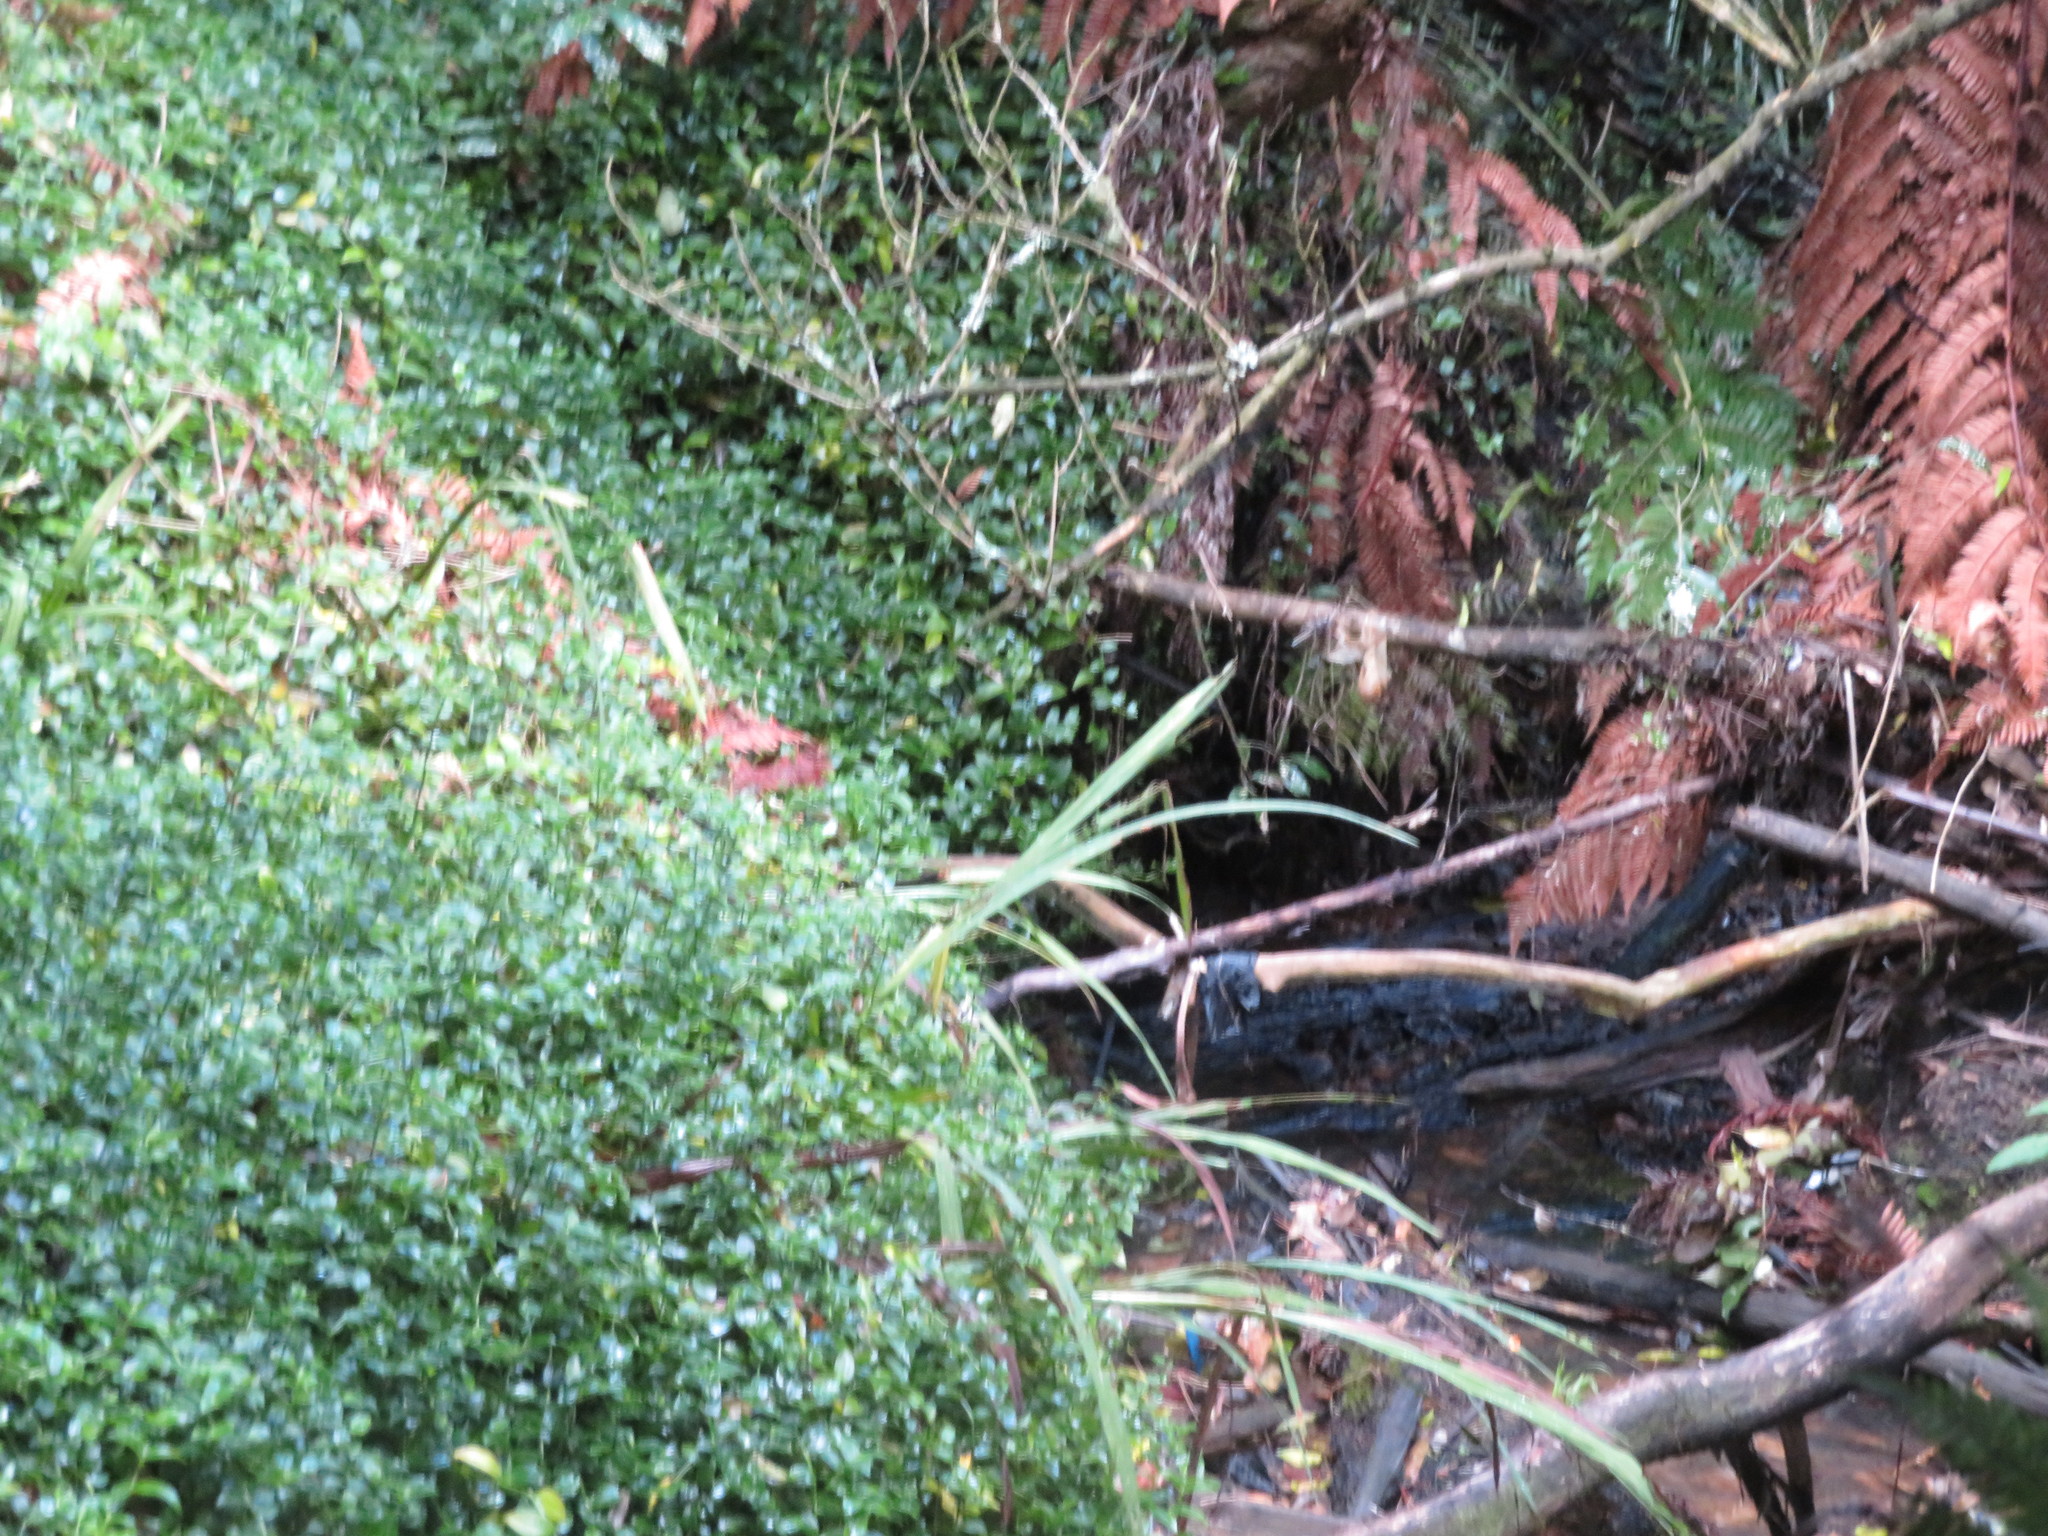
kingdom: Plantae
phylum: Tracheophyta
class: Liliopsida
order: Asparagales
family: Iridaceae
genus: Crocosmia
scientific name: Crocosmia crocosmiiflora
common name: Montbretia
